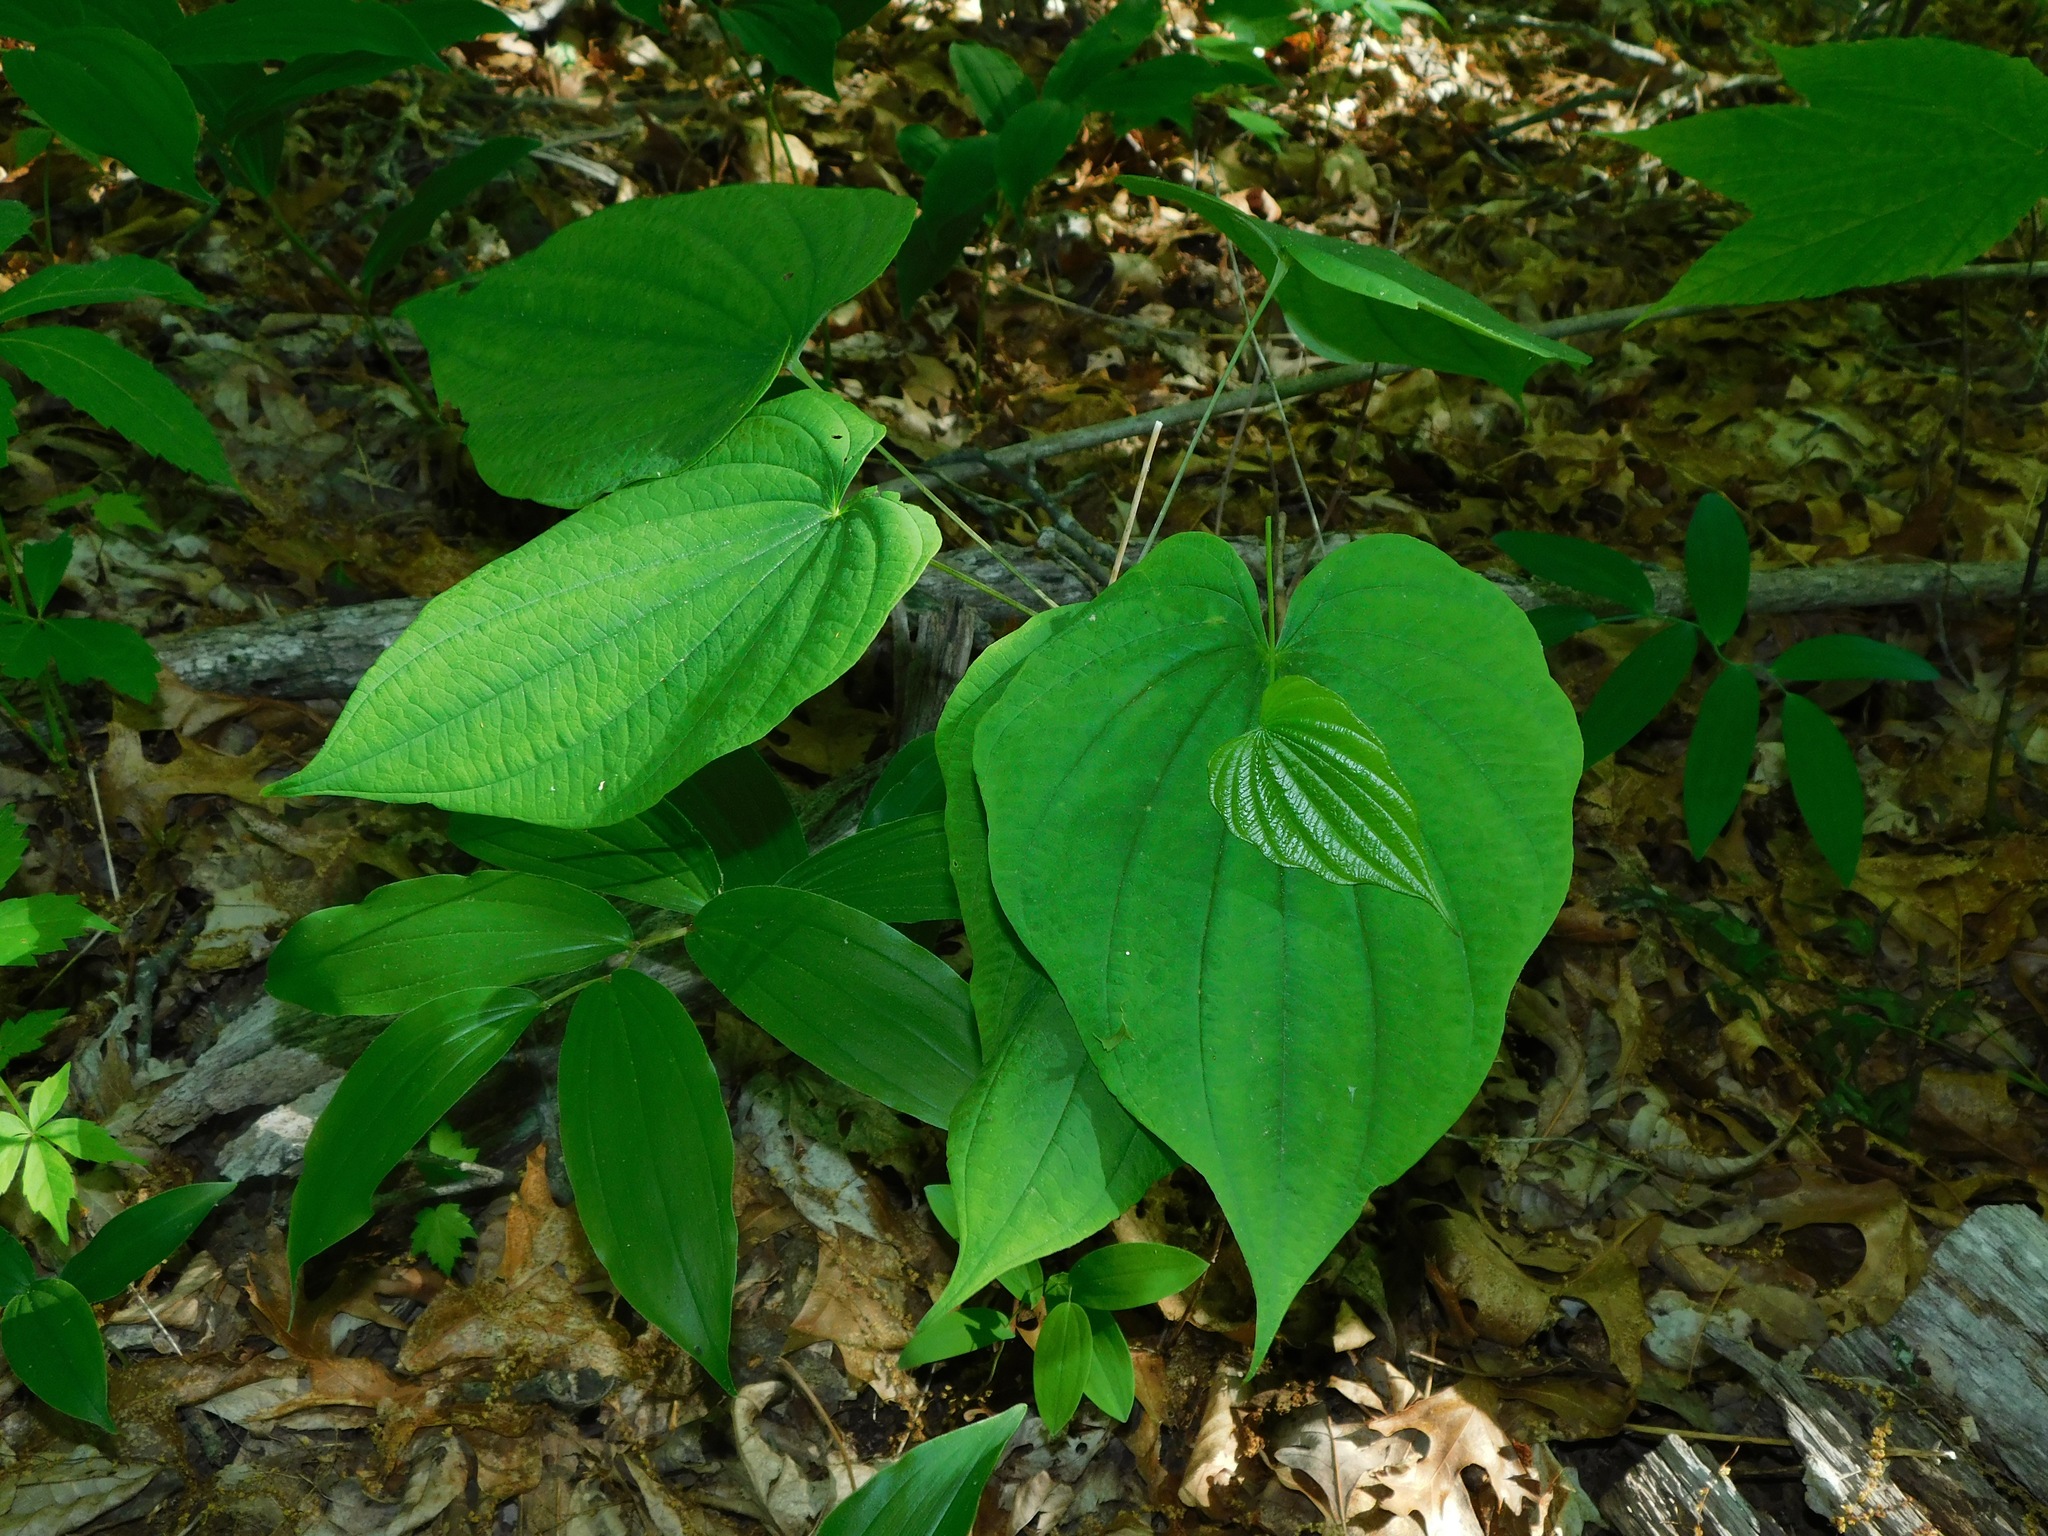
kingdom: Plantae
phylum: Tracheophyta
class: Liliopsida
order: Dioscoreales
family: Dioscoreaceae
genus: Dioscorea
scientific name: Dioscorea quaternata
